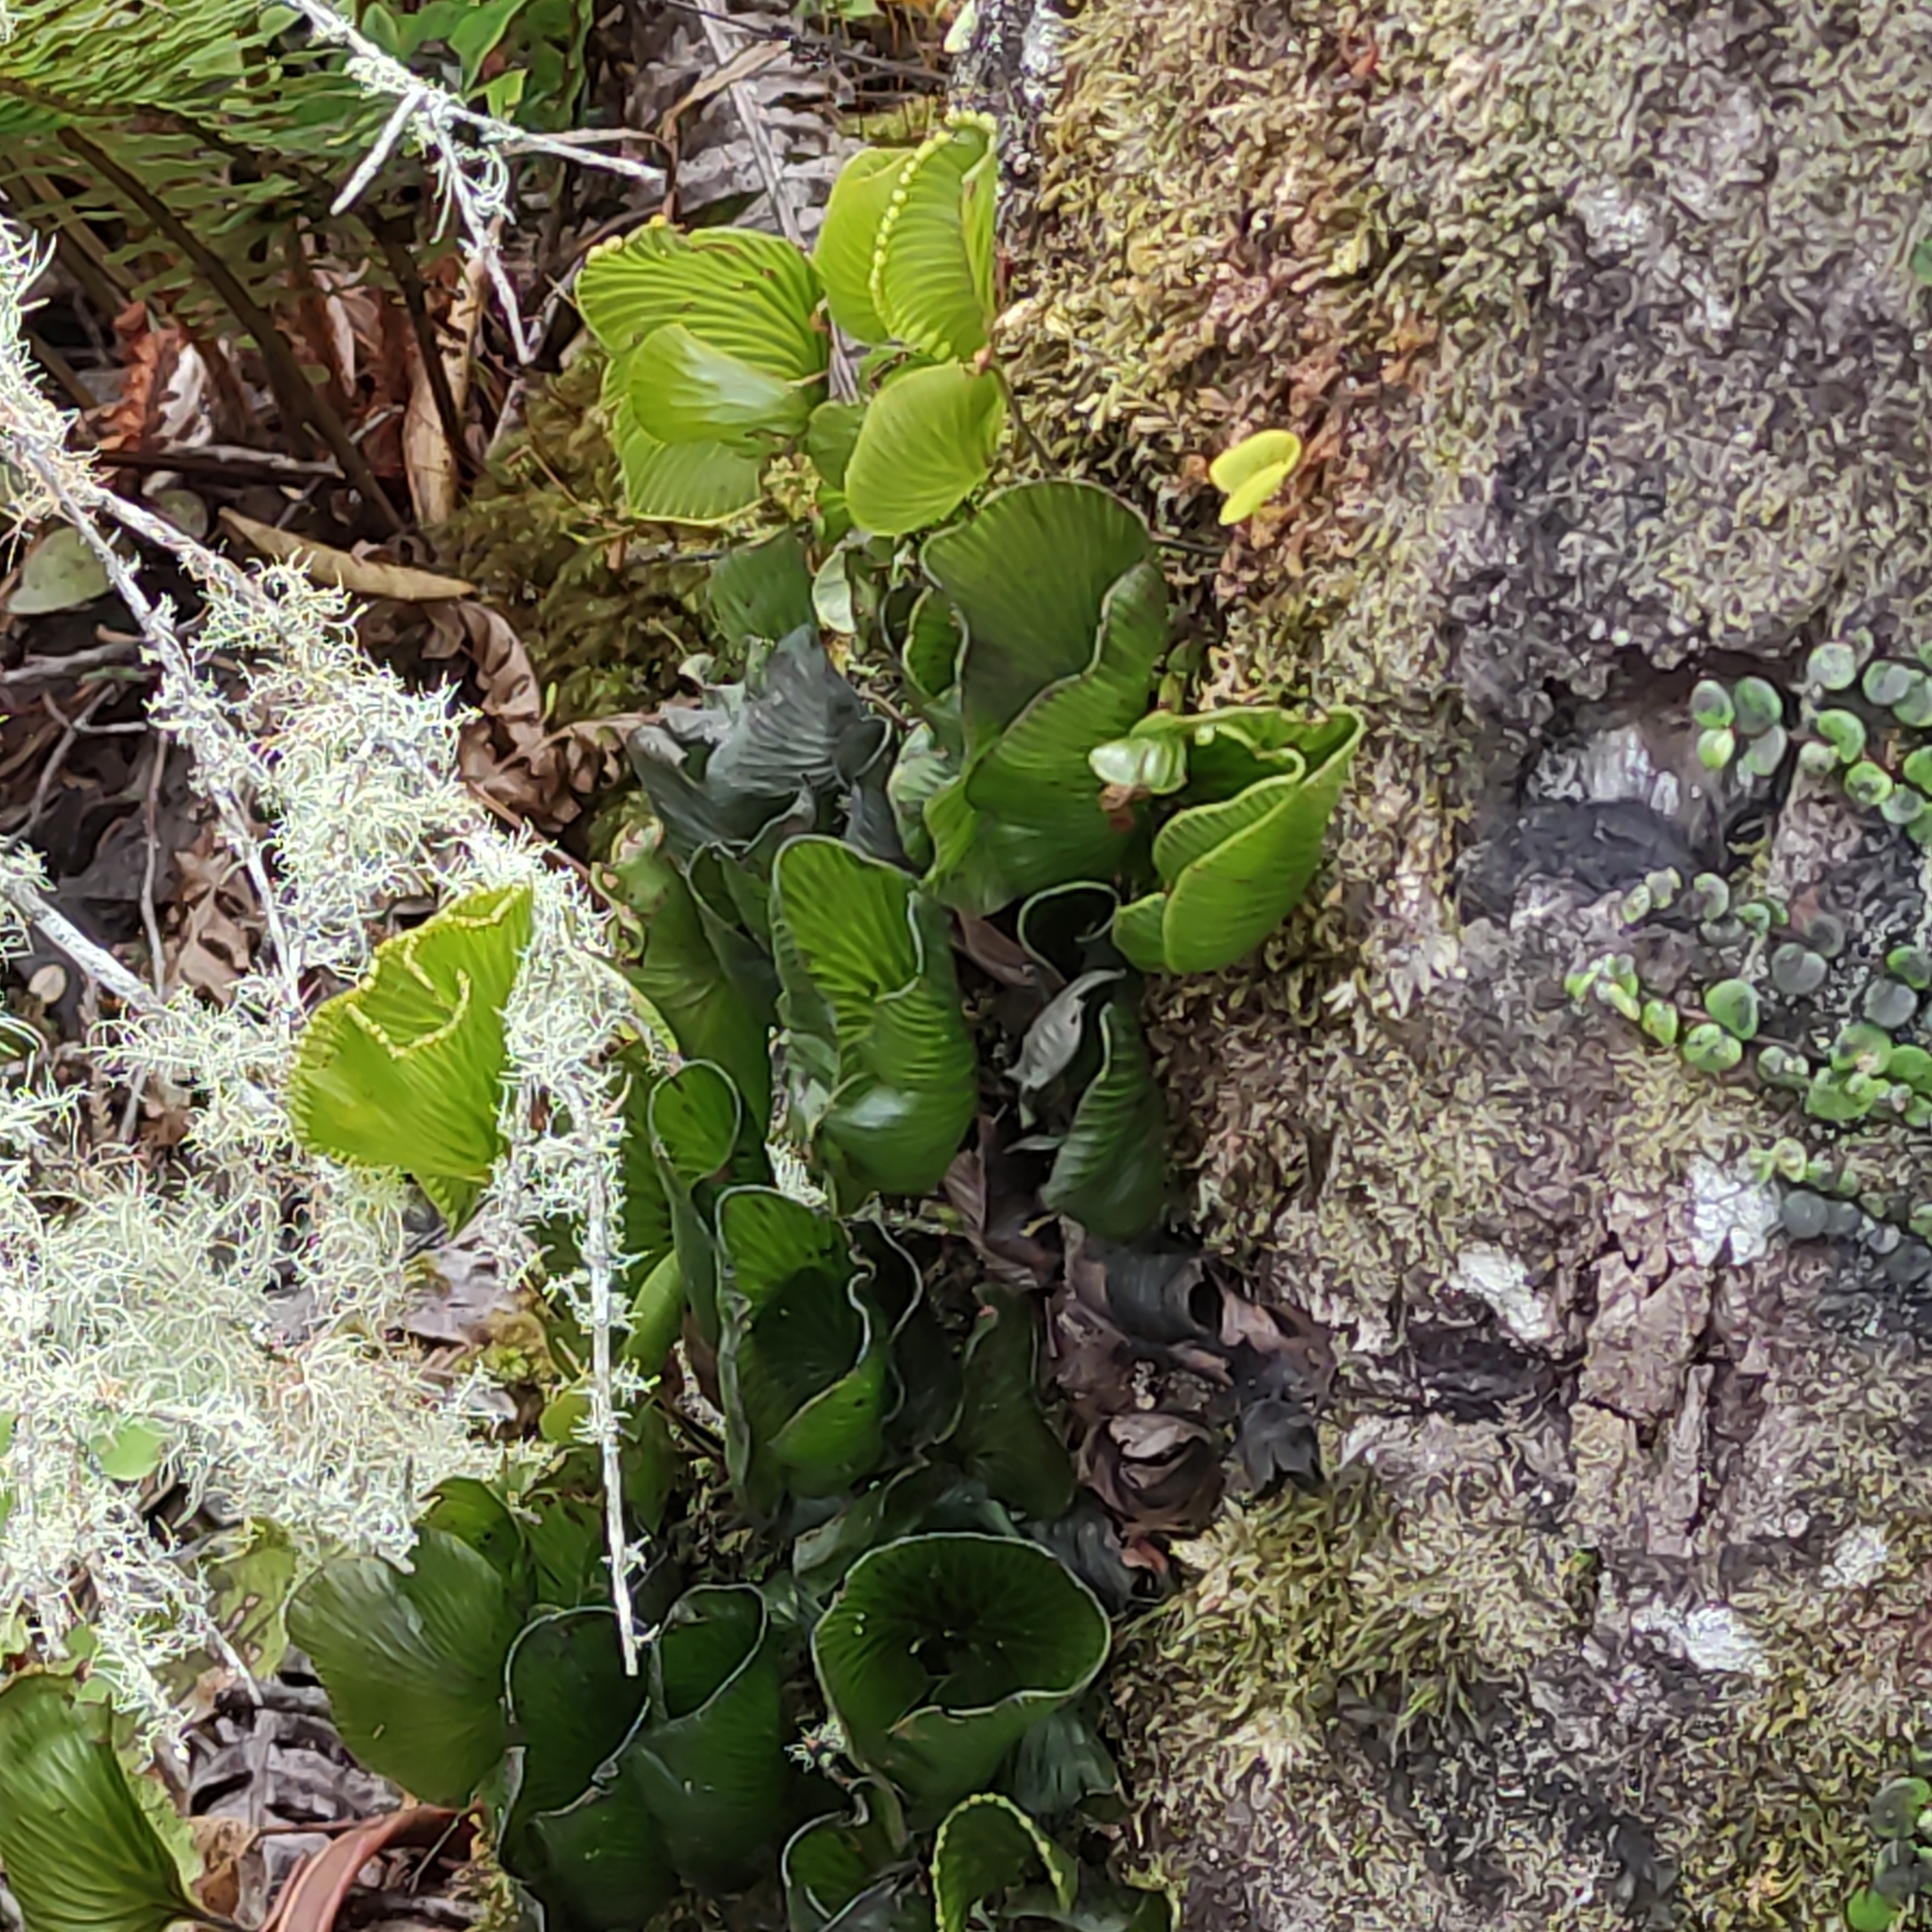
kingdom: Plantae
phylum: Tracheophyta
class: Polypodiopsida
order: Hymenophyllales
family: Hymenophyllaceae
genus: Hymenophyllum
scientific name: Hymenophyllum nephrophyllum
